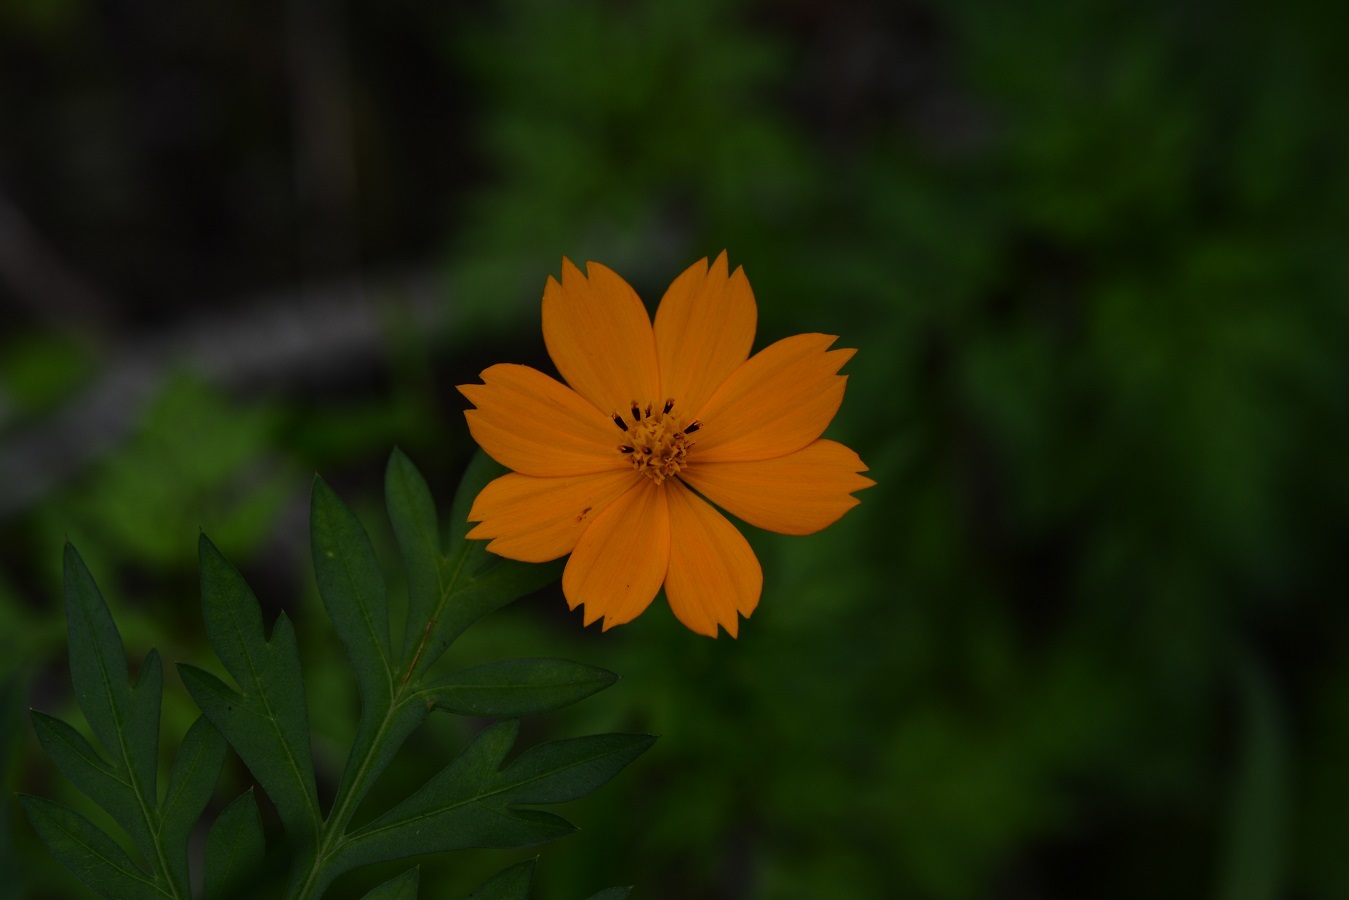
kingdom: Plantae
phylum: Tracheophyta
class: Magnoliopsida
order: Asterales
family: Asteraceae
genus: Cosmos
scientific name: Cosmos sulphureus
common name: Sulphur cosmos
